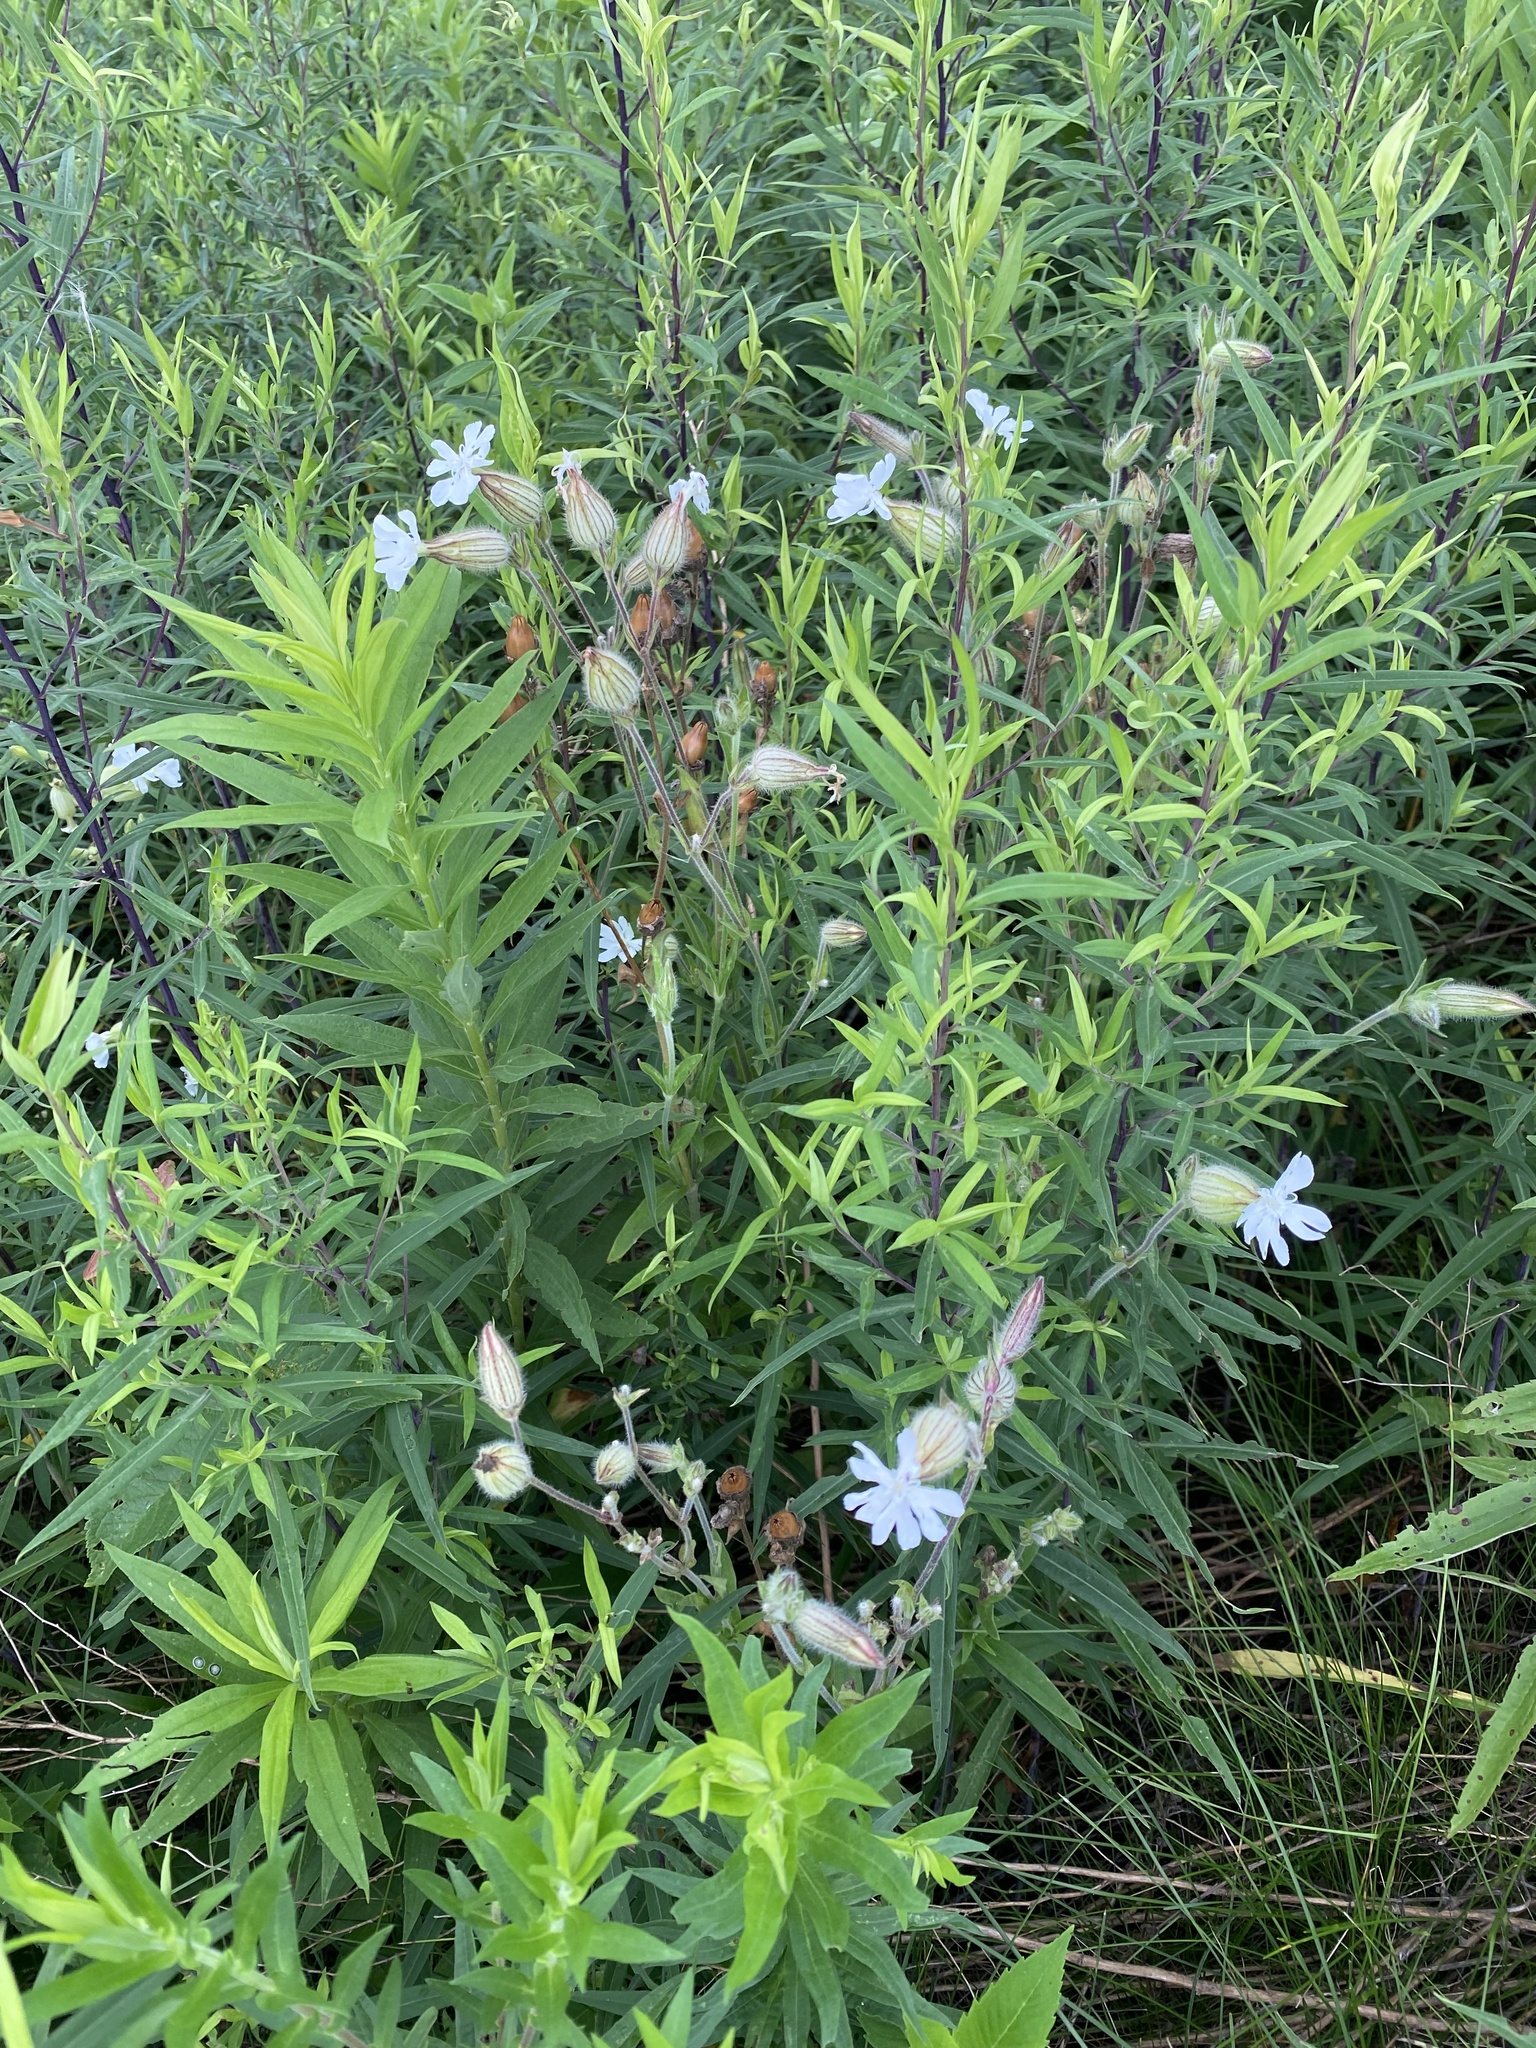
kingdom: Plantae
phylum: Tracheophyta
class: Magnoliopsida
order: Caryophyllales
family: Caryophyllaceae
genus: Silene
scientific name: Silene latifolia
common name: White campion
